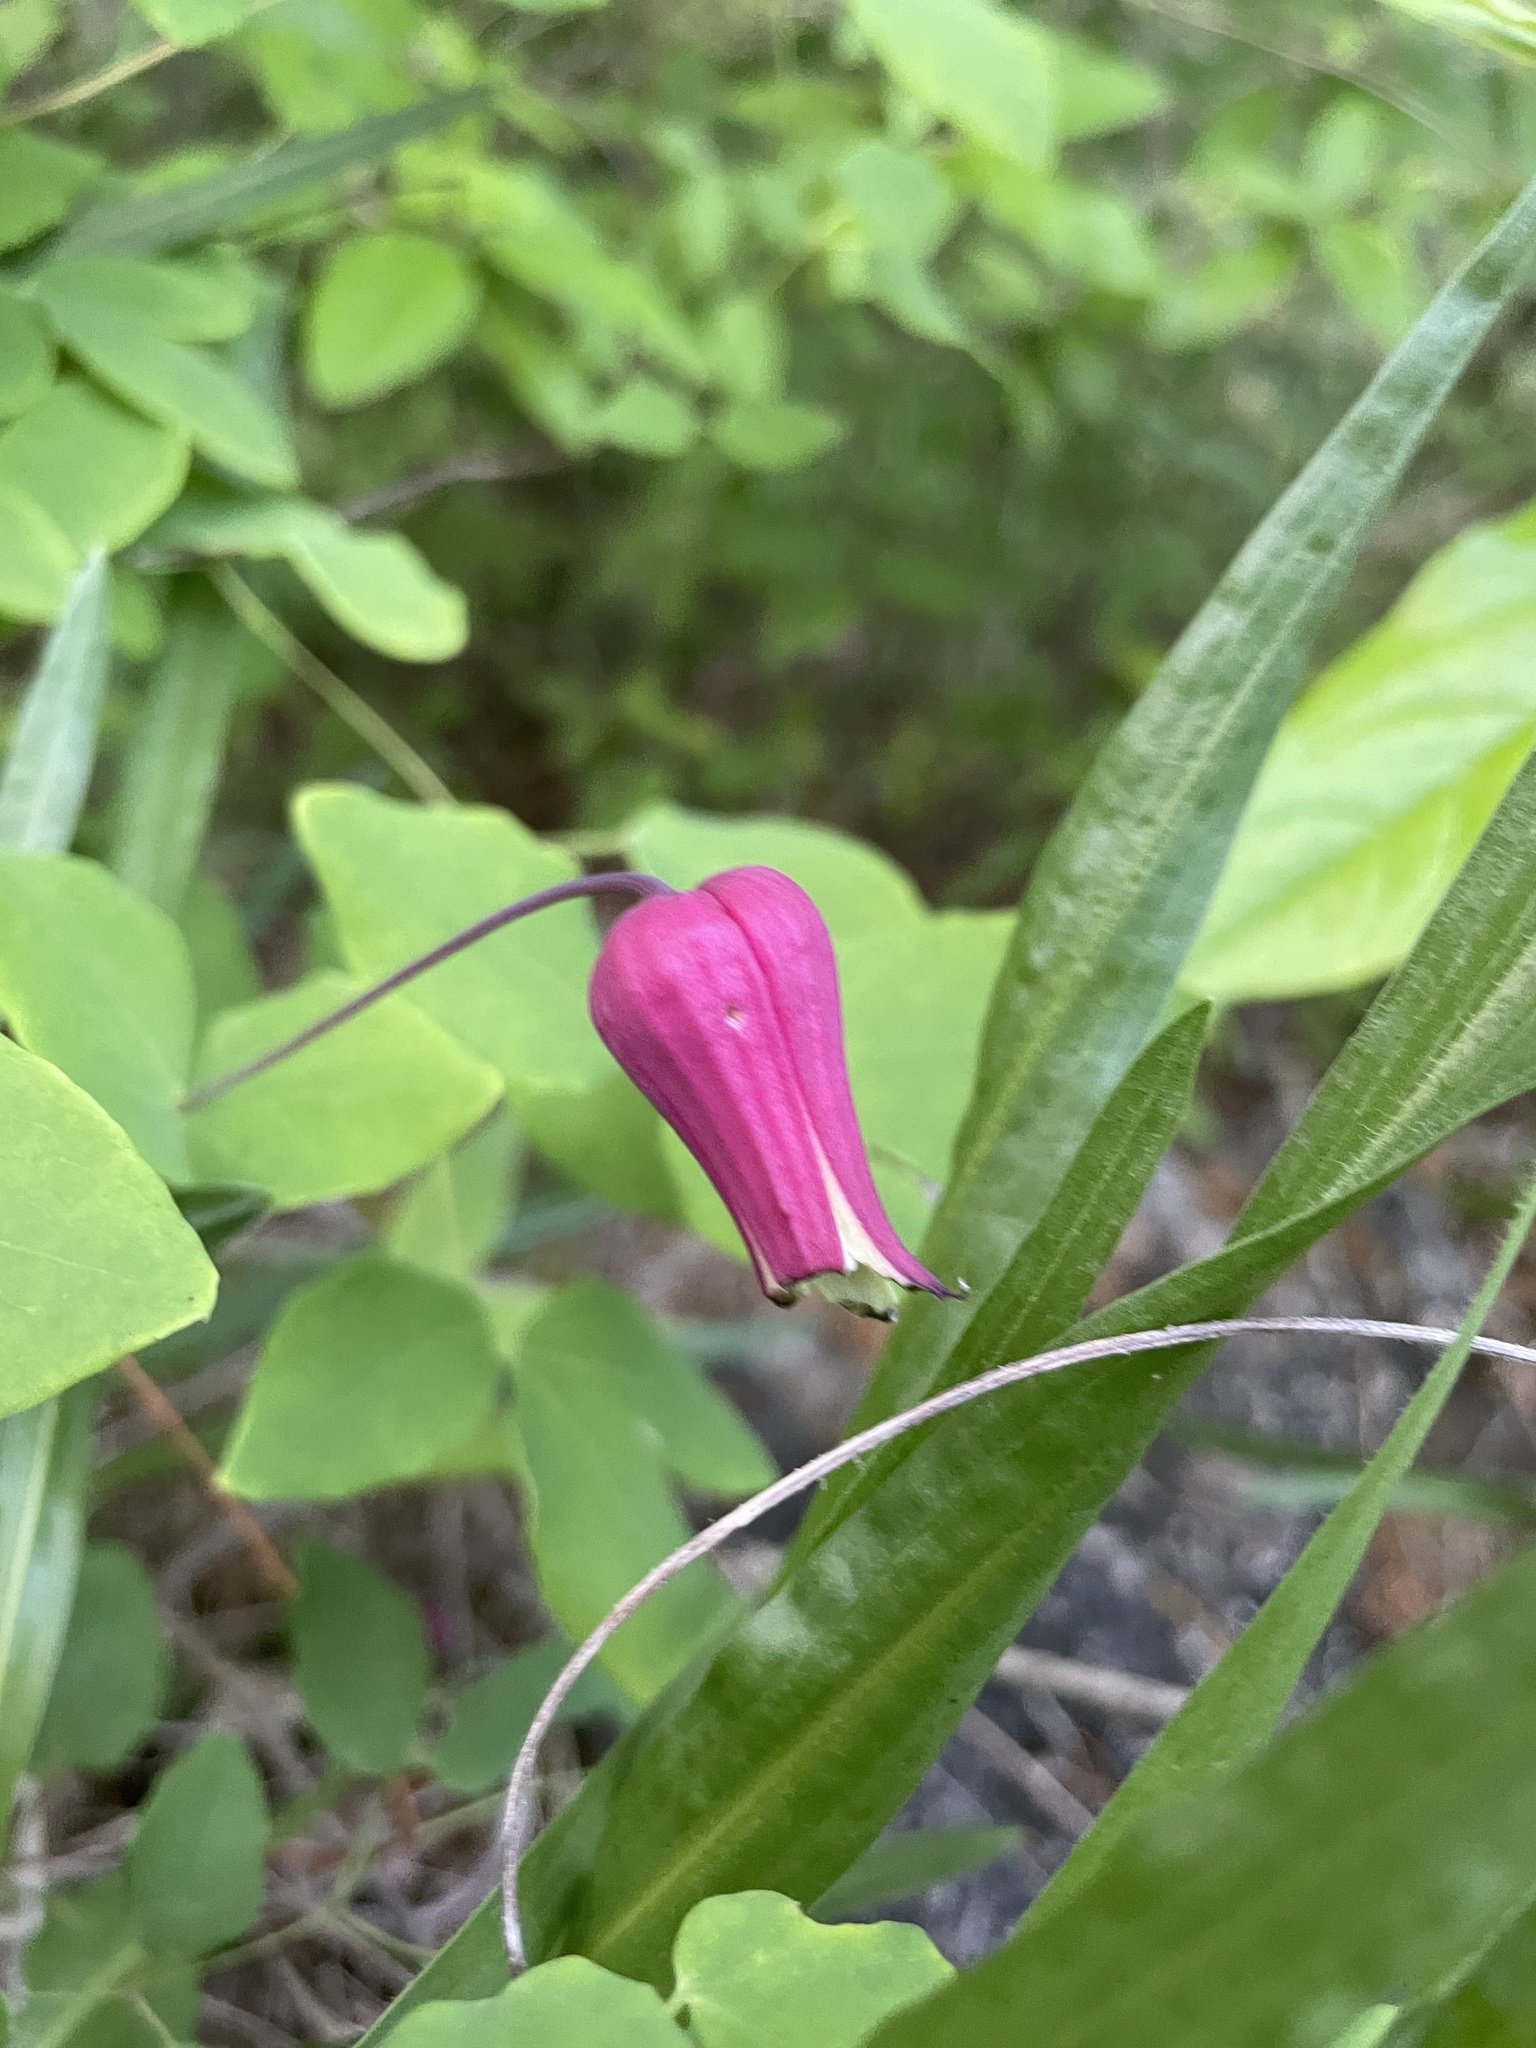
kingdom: Plantae
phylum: Tracheophyta
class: Magnoliopsida
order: Ranunculales
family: Ranunculaceae
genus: Clematis
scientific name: Clematis glaucophylla
